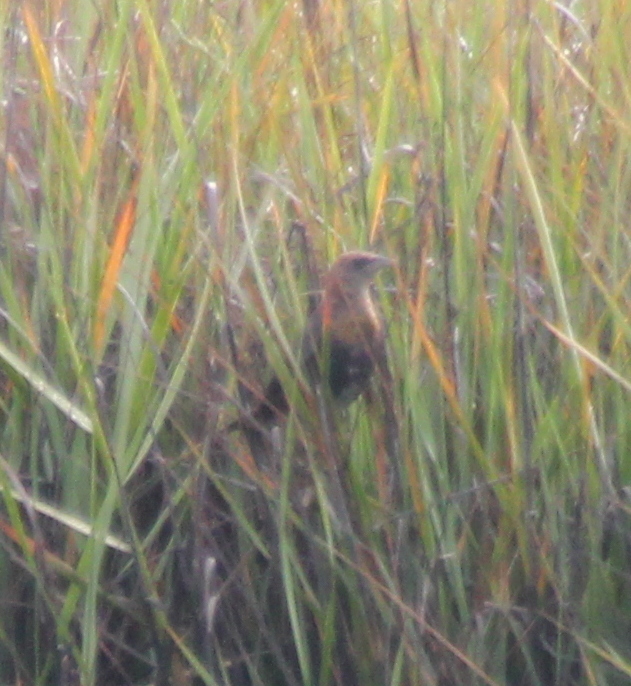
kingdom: Animalia
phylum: Chordata
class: Aves
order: Passeriformes
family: Icteridae
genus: Xanthocephalus
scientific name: Xanthocephalus xanthocephalus
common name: Yellow-headed blackbird
